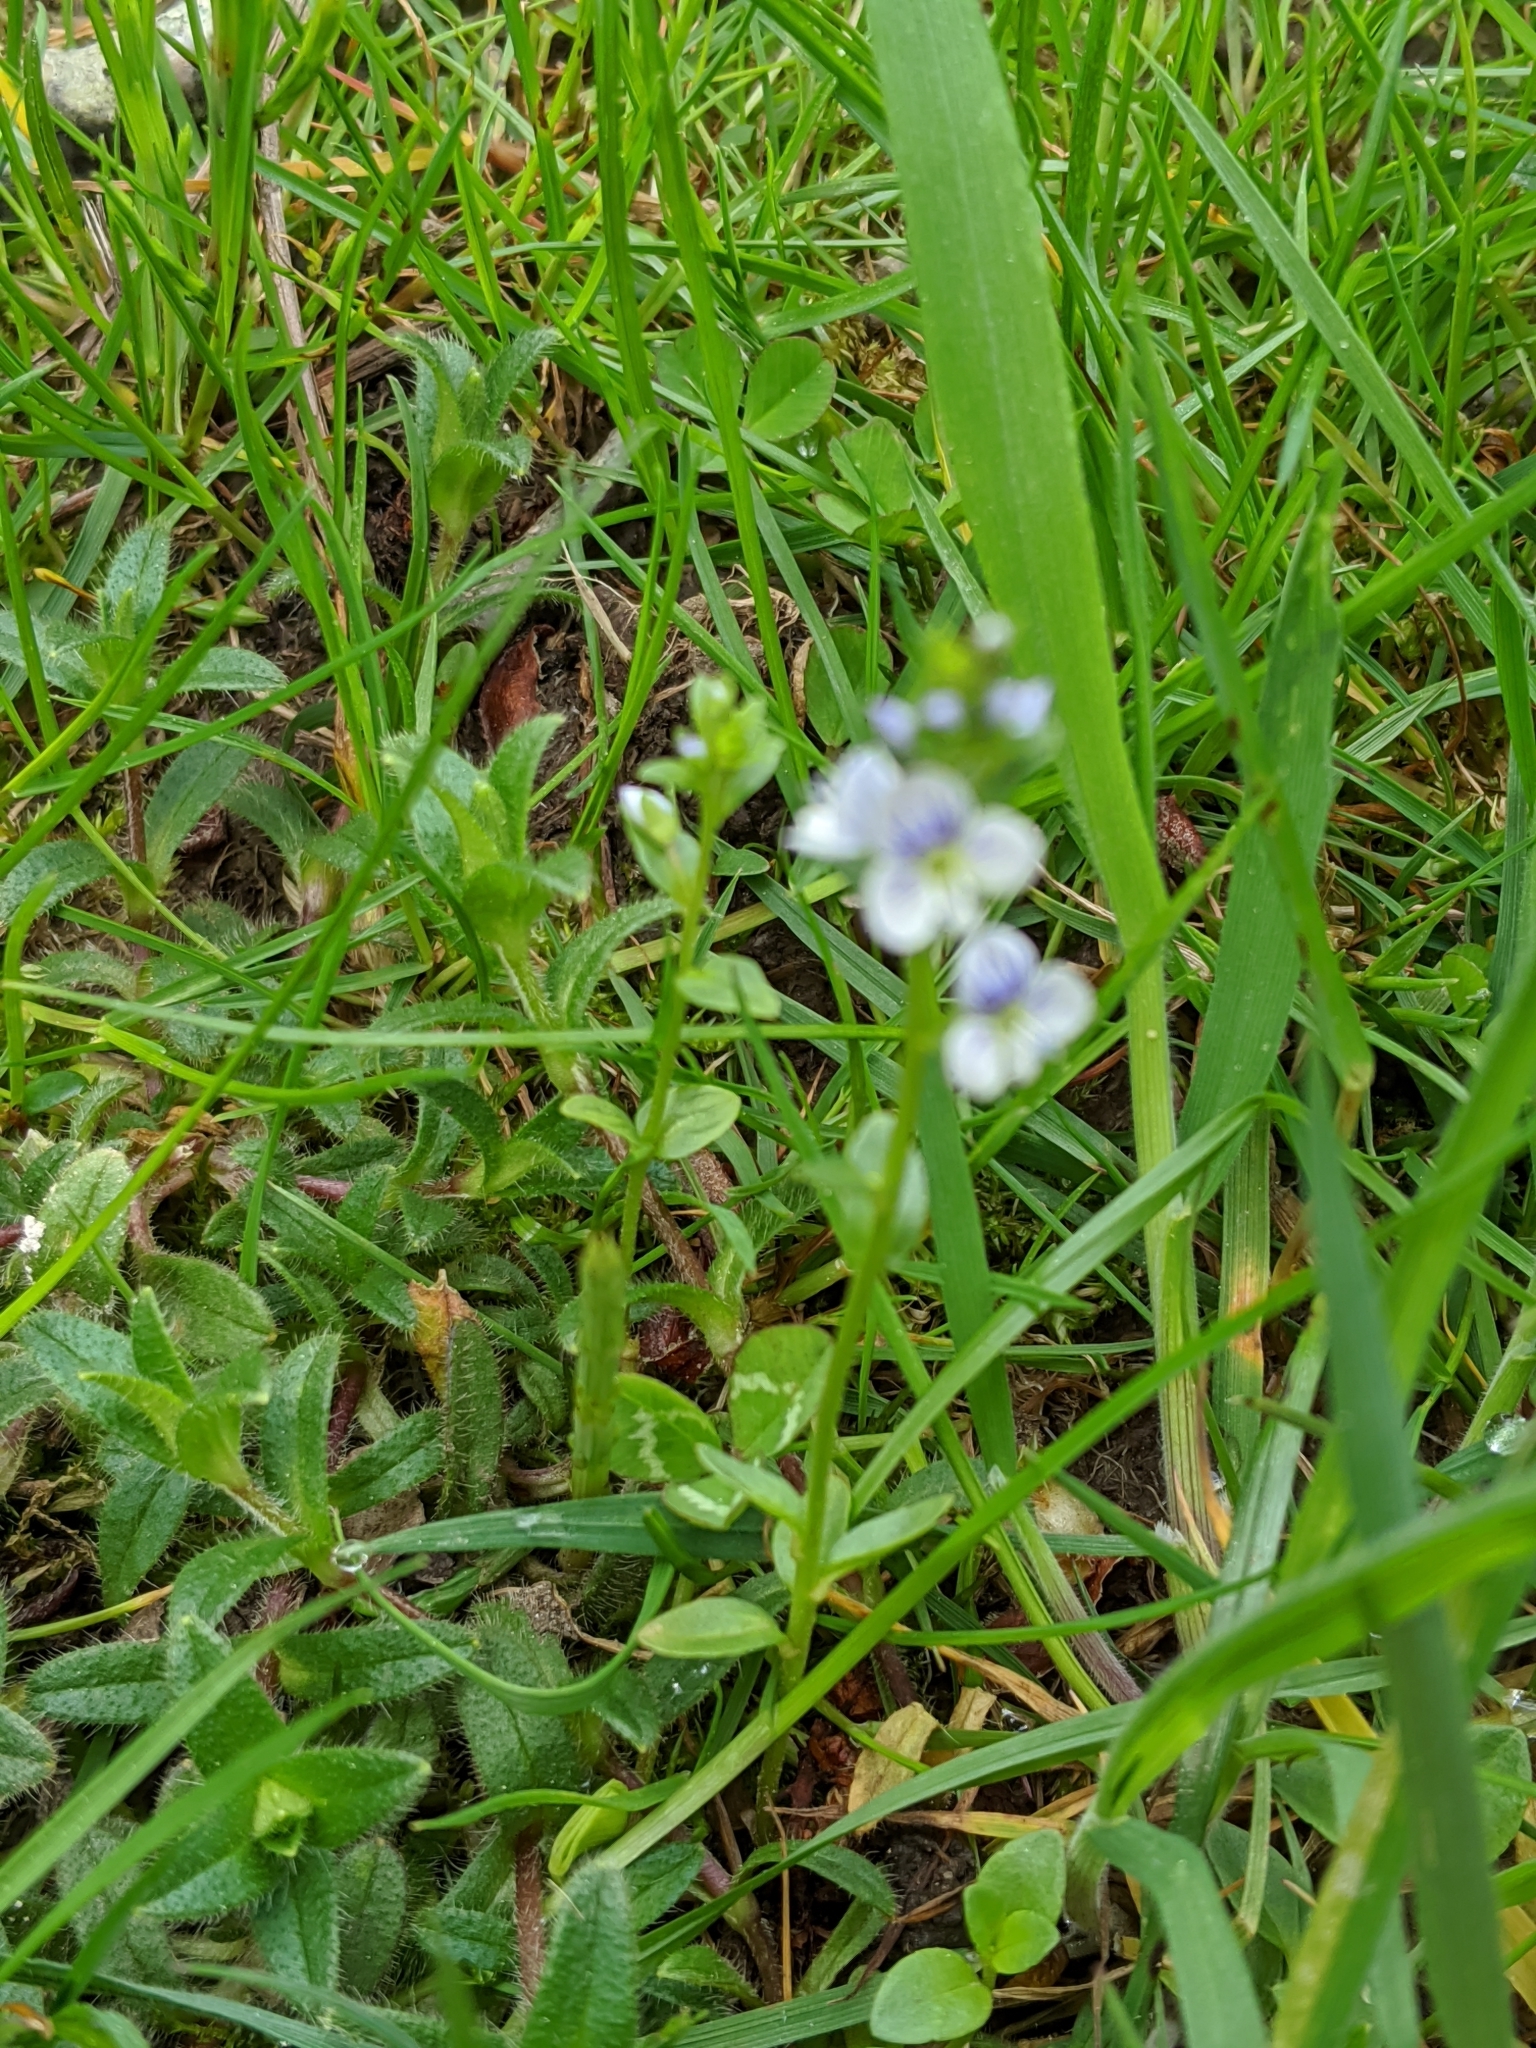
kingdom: Plantae
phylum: Tracheophyta
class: Magnoliopsida
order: Lamiales
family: Plantaginaceae
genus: Veronica
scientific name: Veronica serpyllifolia
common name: Thyme-leaved speedwell
